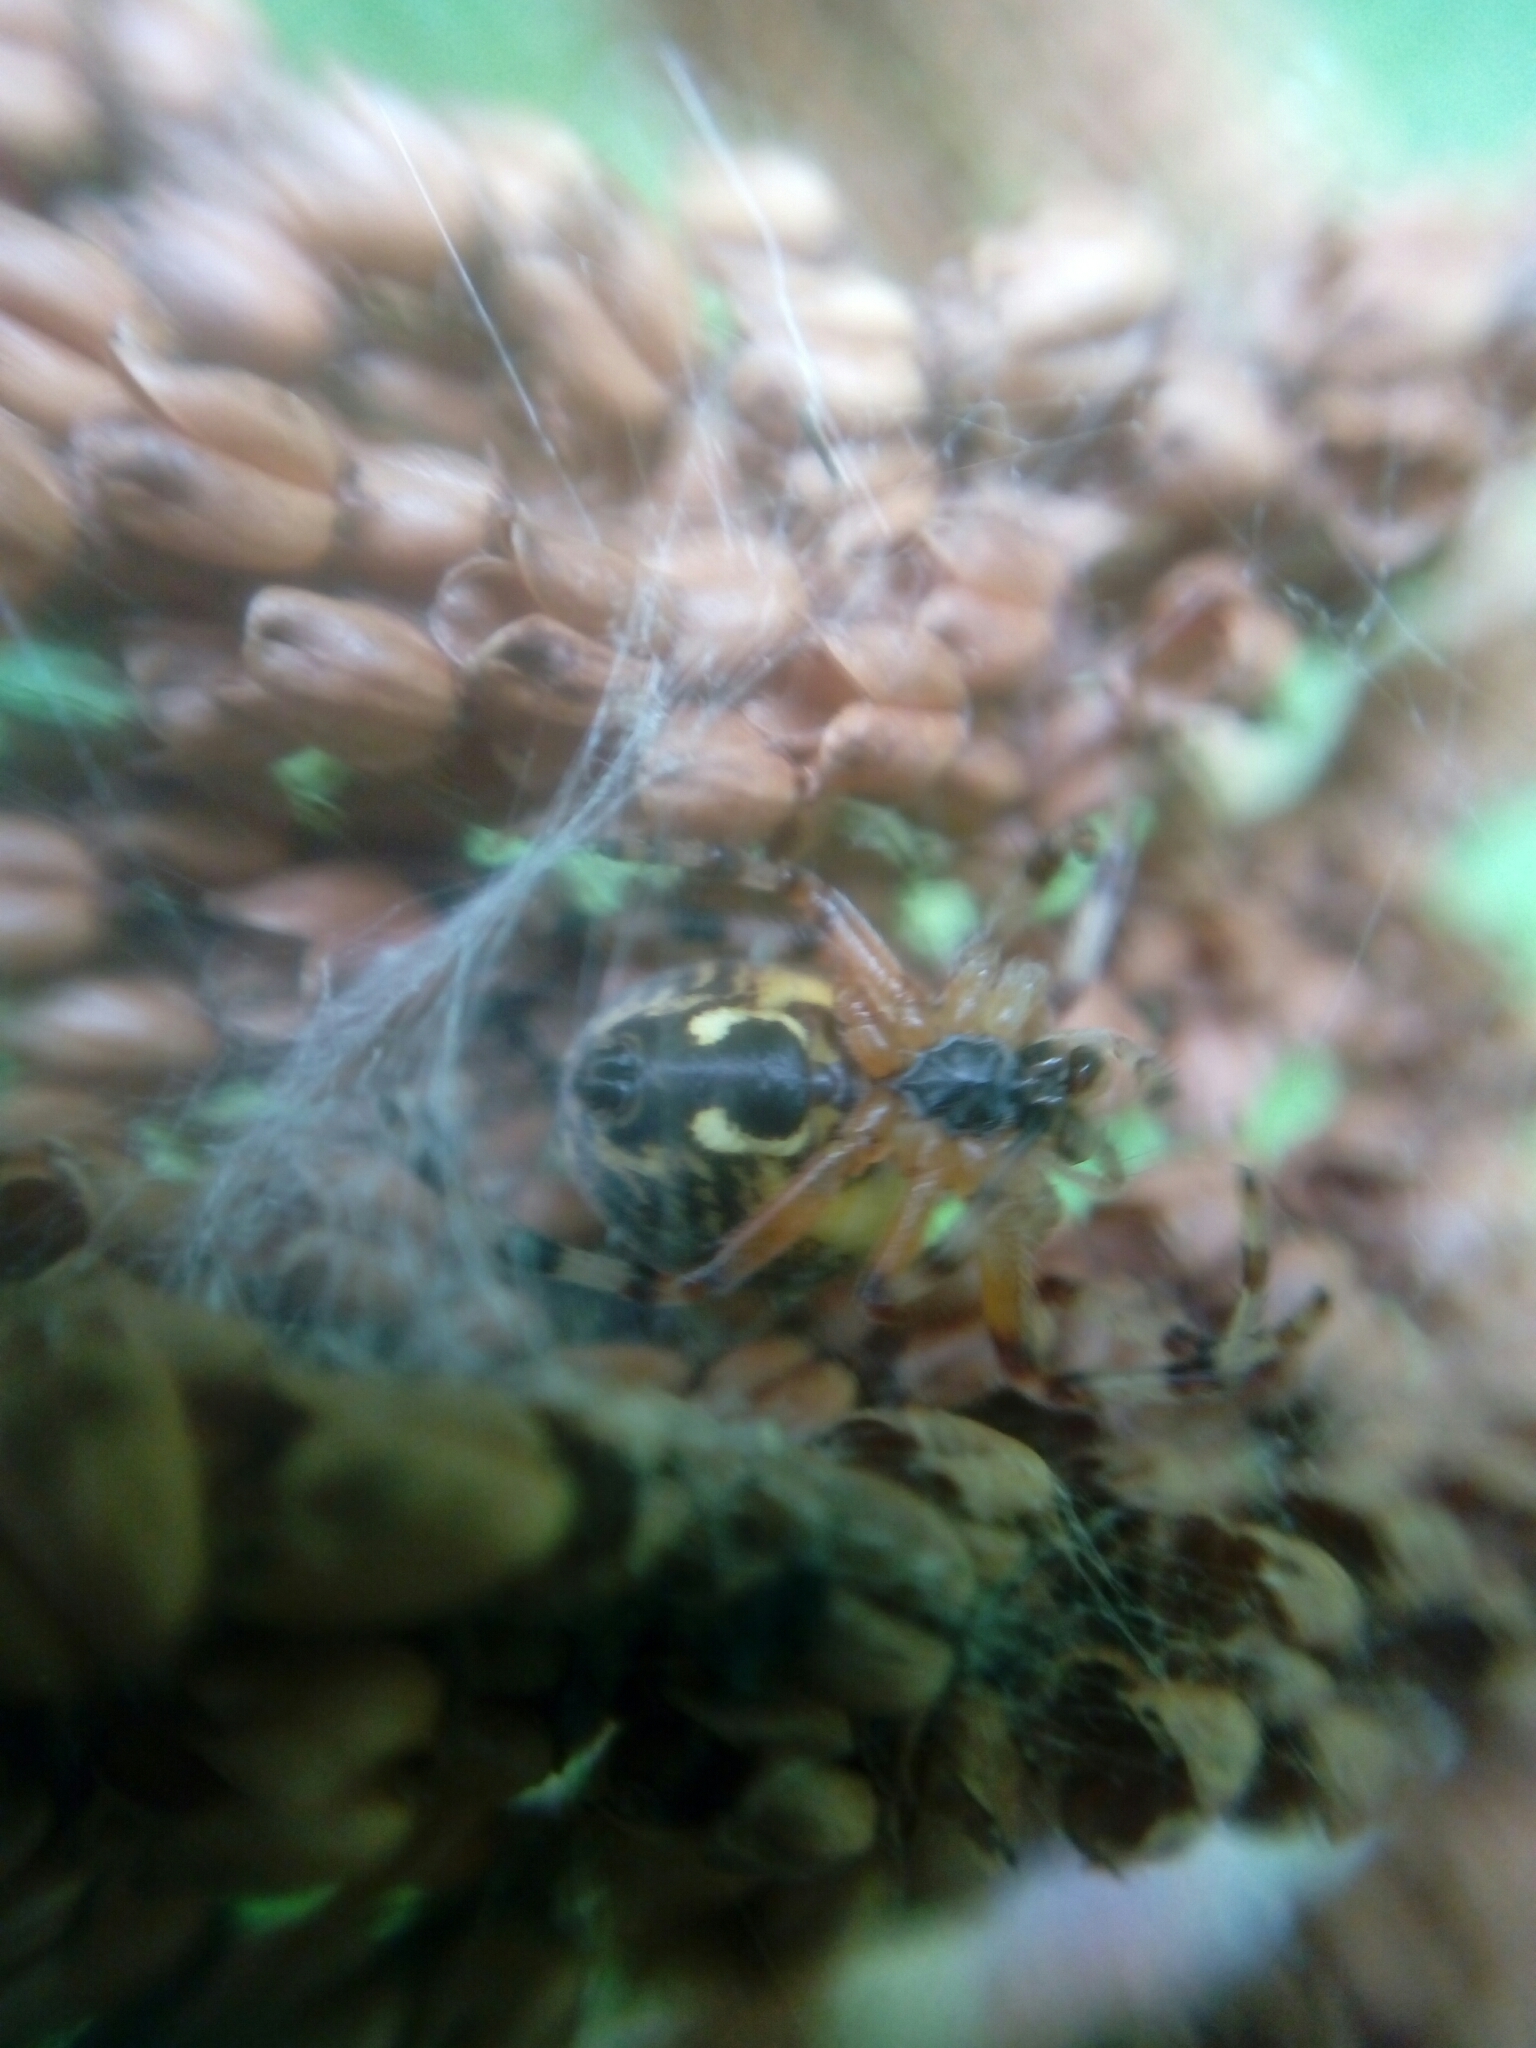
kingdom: Animalia
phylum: Arthropoda
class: Arachnida
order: Araneae
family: Araneidae
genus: Araneus
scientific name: Araneus marmoreus
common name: Marbled orbweaver
